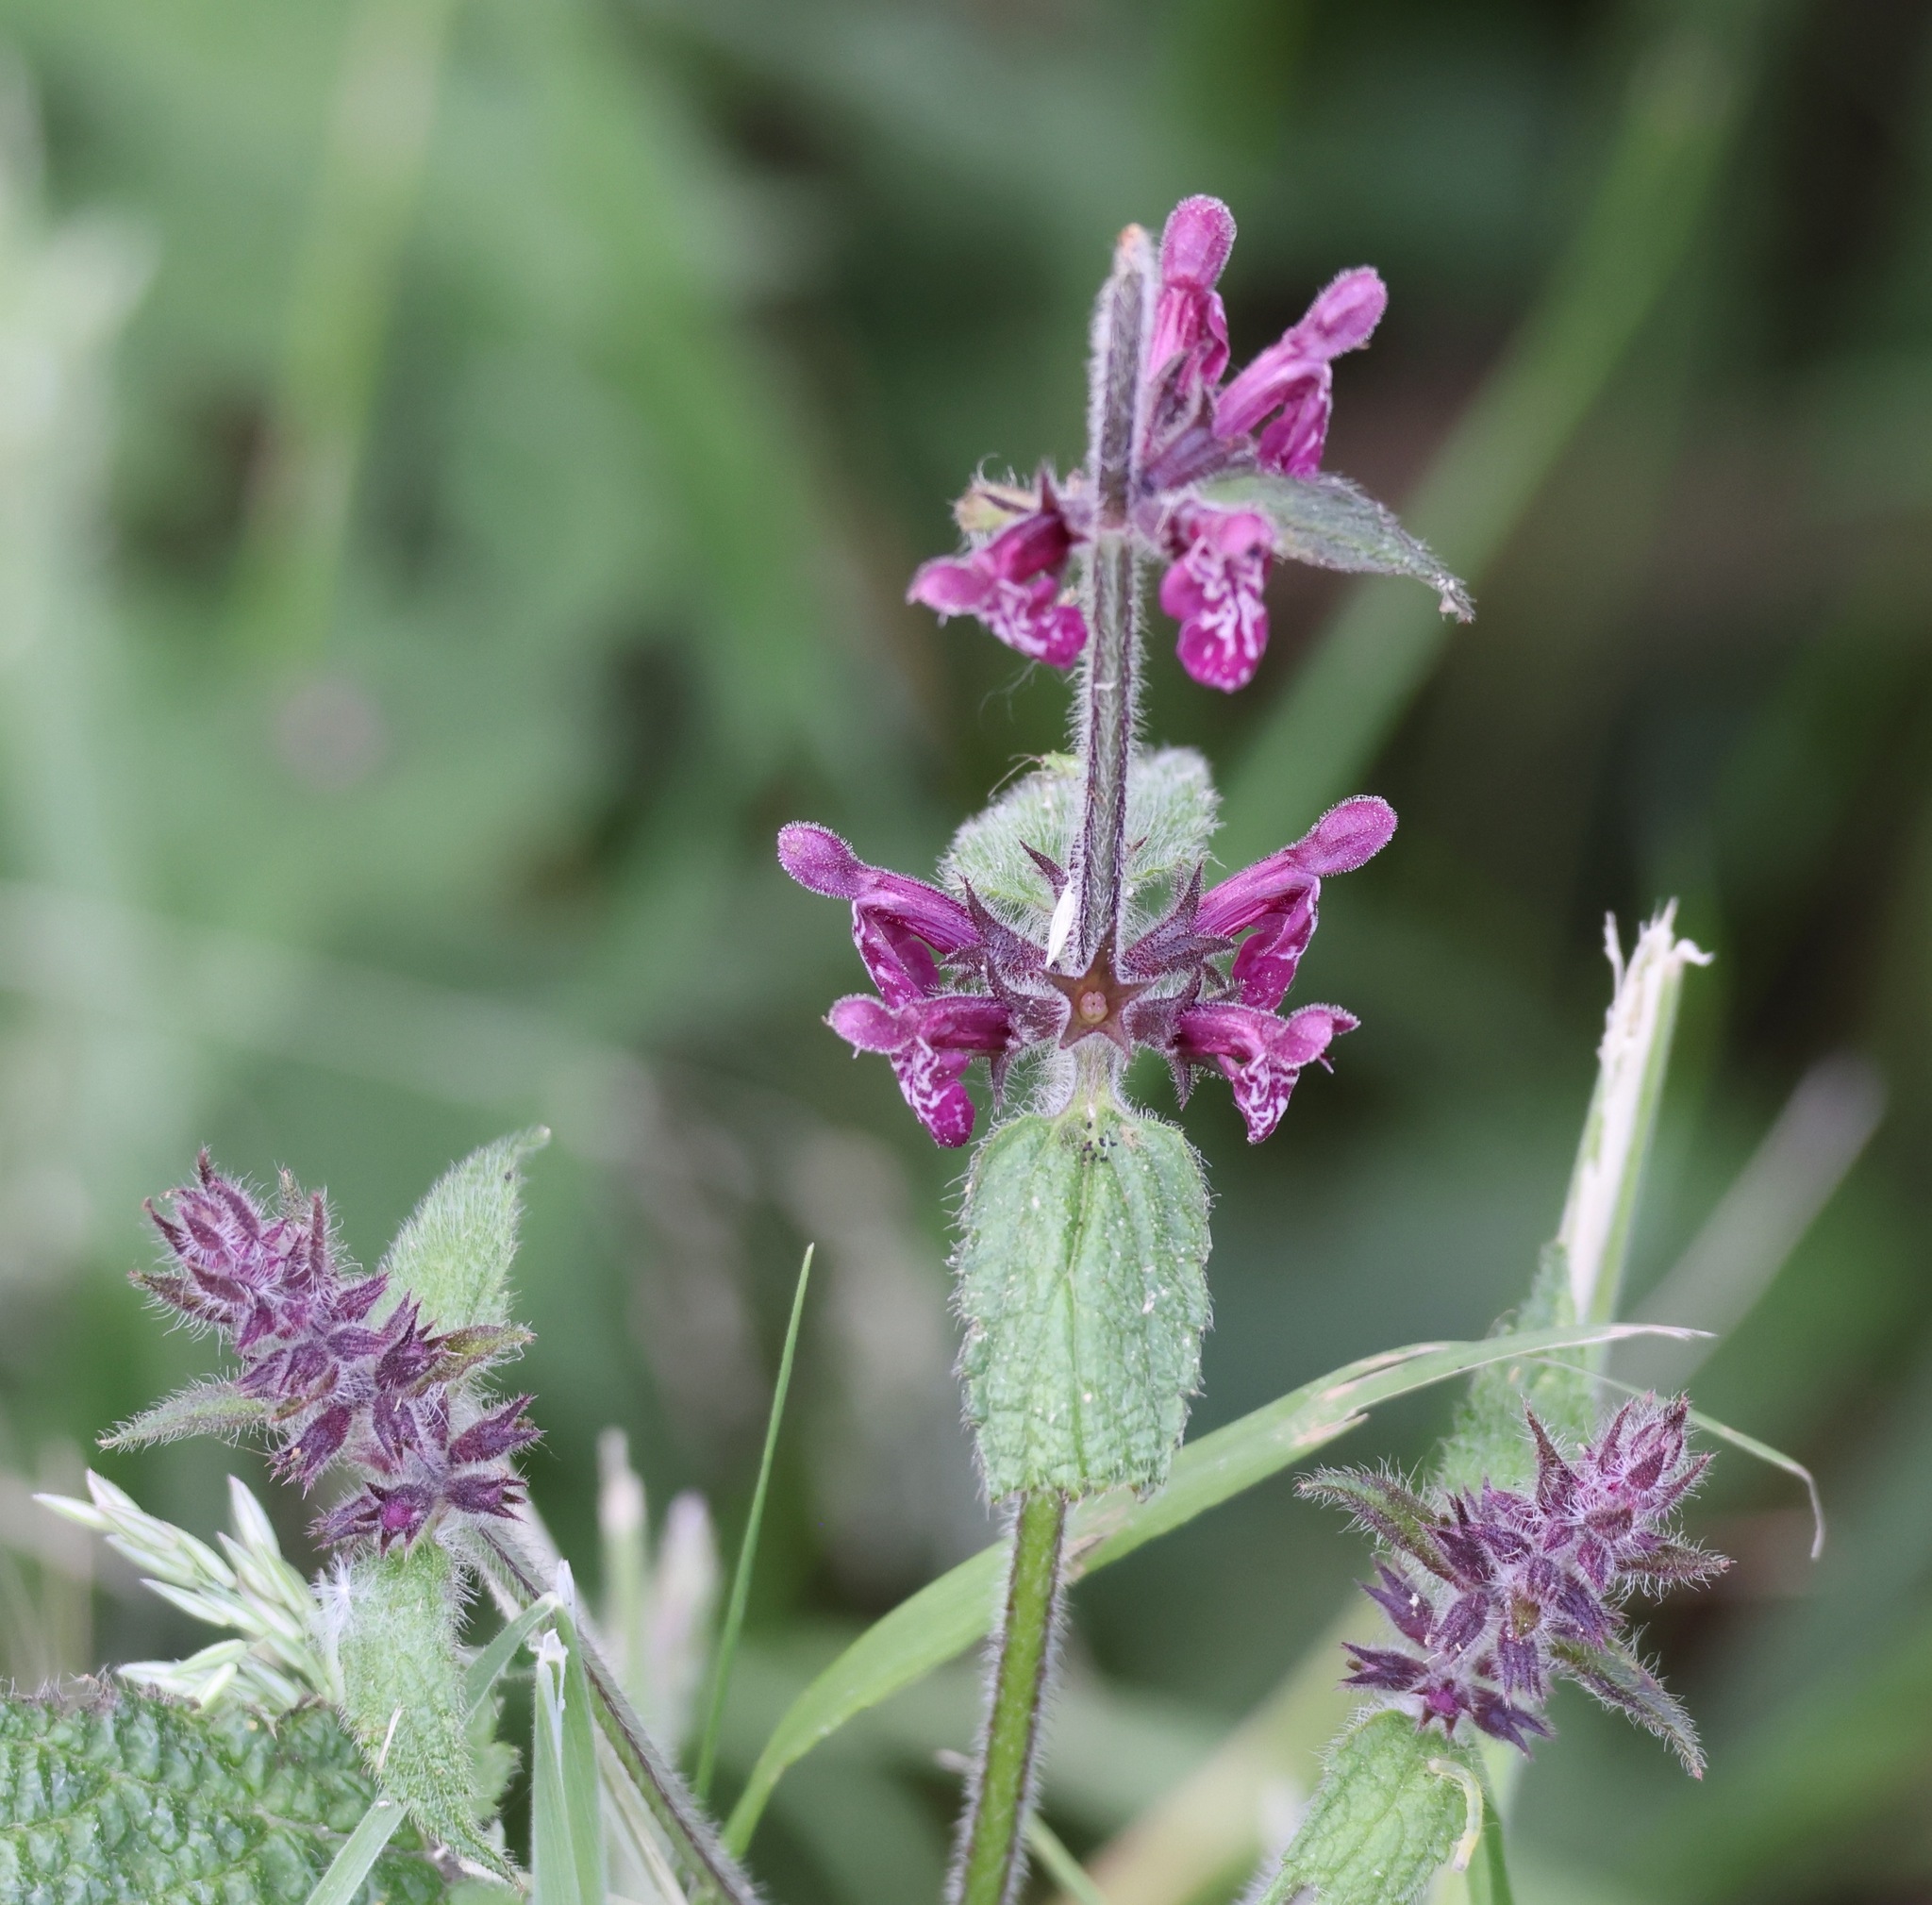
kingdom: Plantae
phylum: Tracheophyta
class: Magnoliopsida
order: Lamiales
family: Lamiaceae
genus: Stachys
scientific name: Stachys sylvatica
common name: Hedge woundwort
